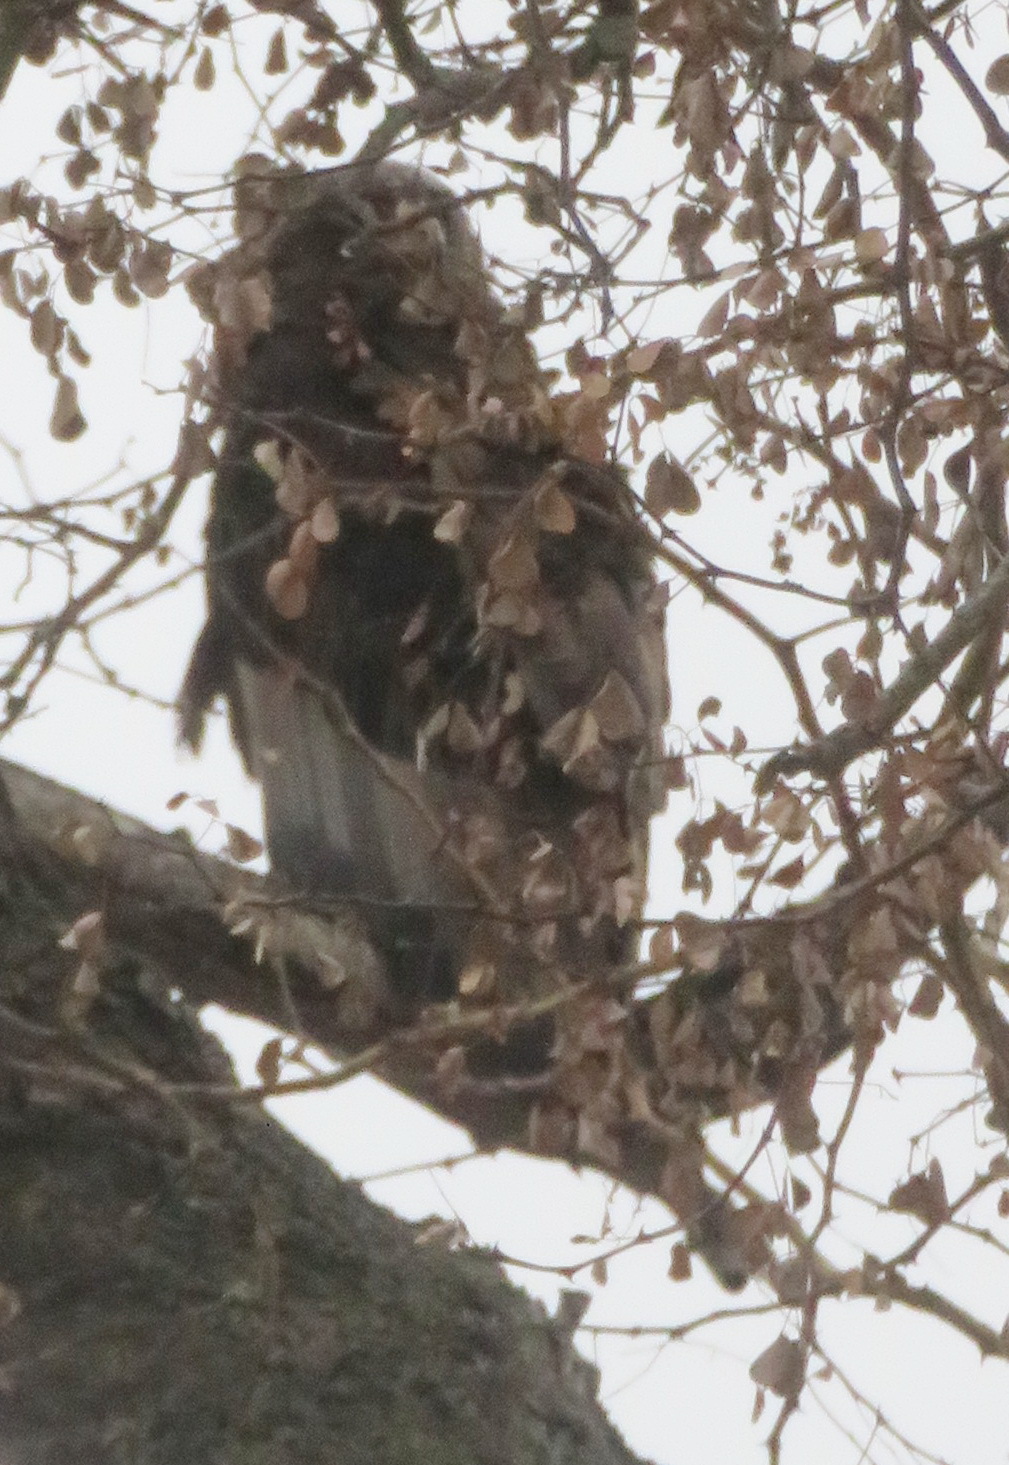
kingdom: Animalia
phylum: Chordata
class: Aves
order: Accipitriformes
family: Accipitridae
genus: Terathopius
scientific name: Terathopius ecaudatus
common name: Bateleur
